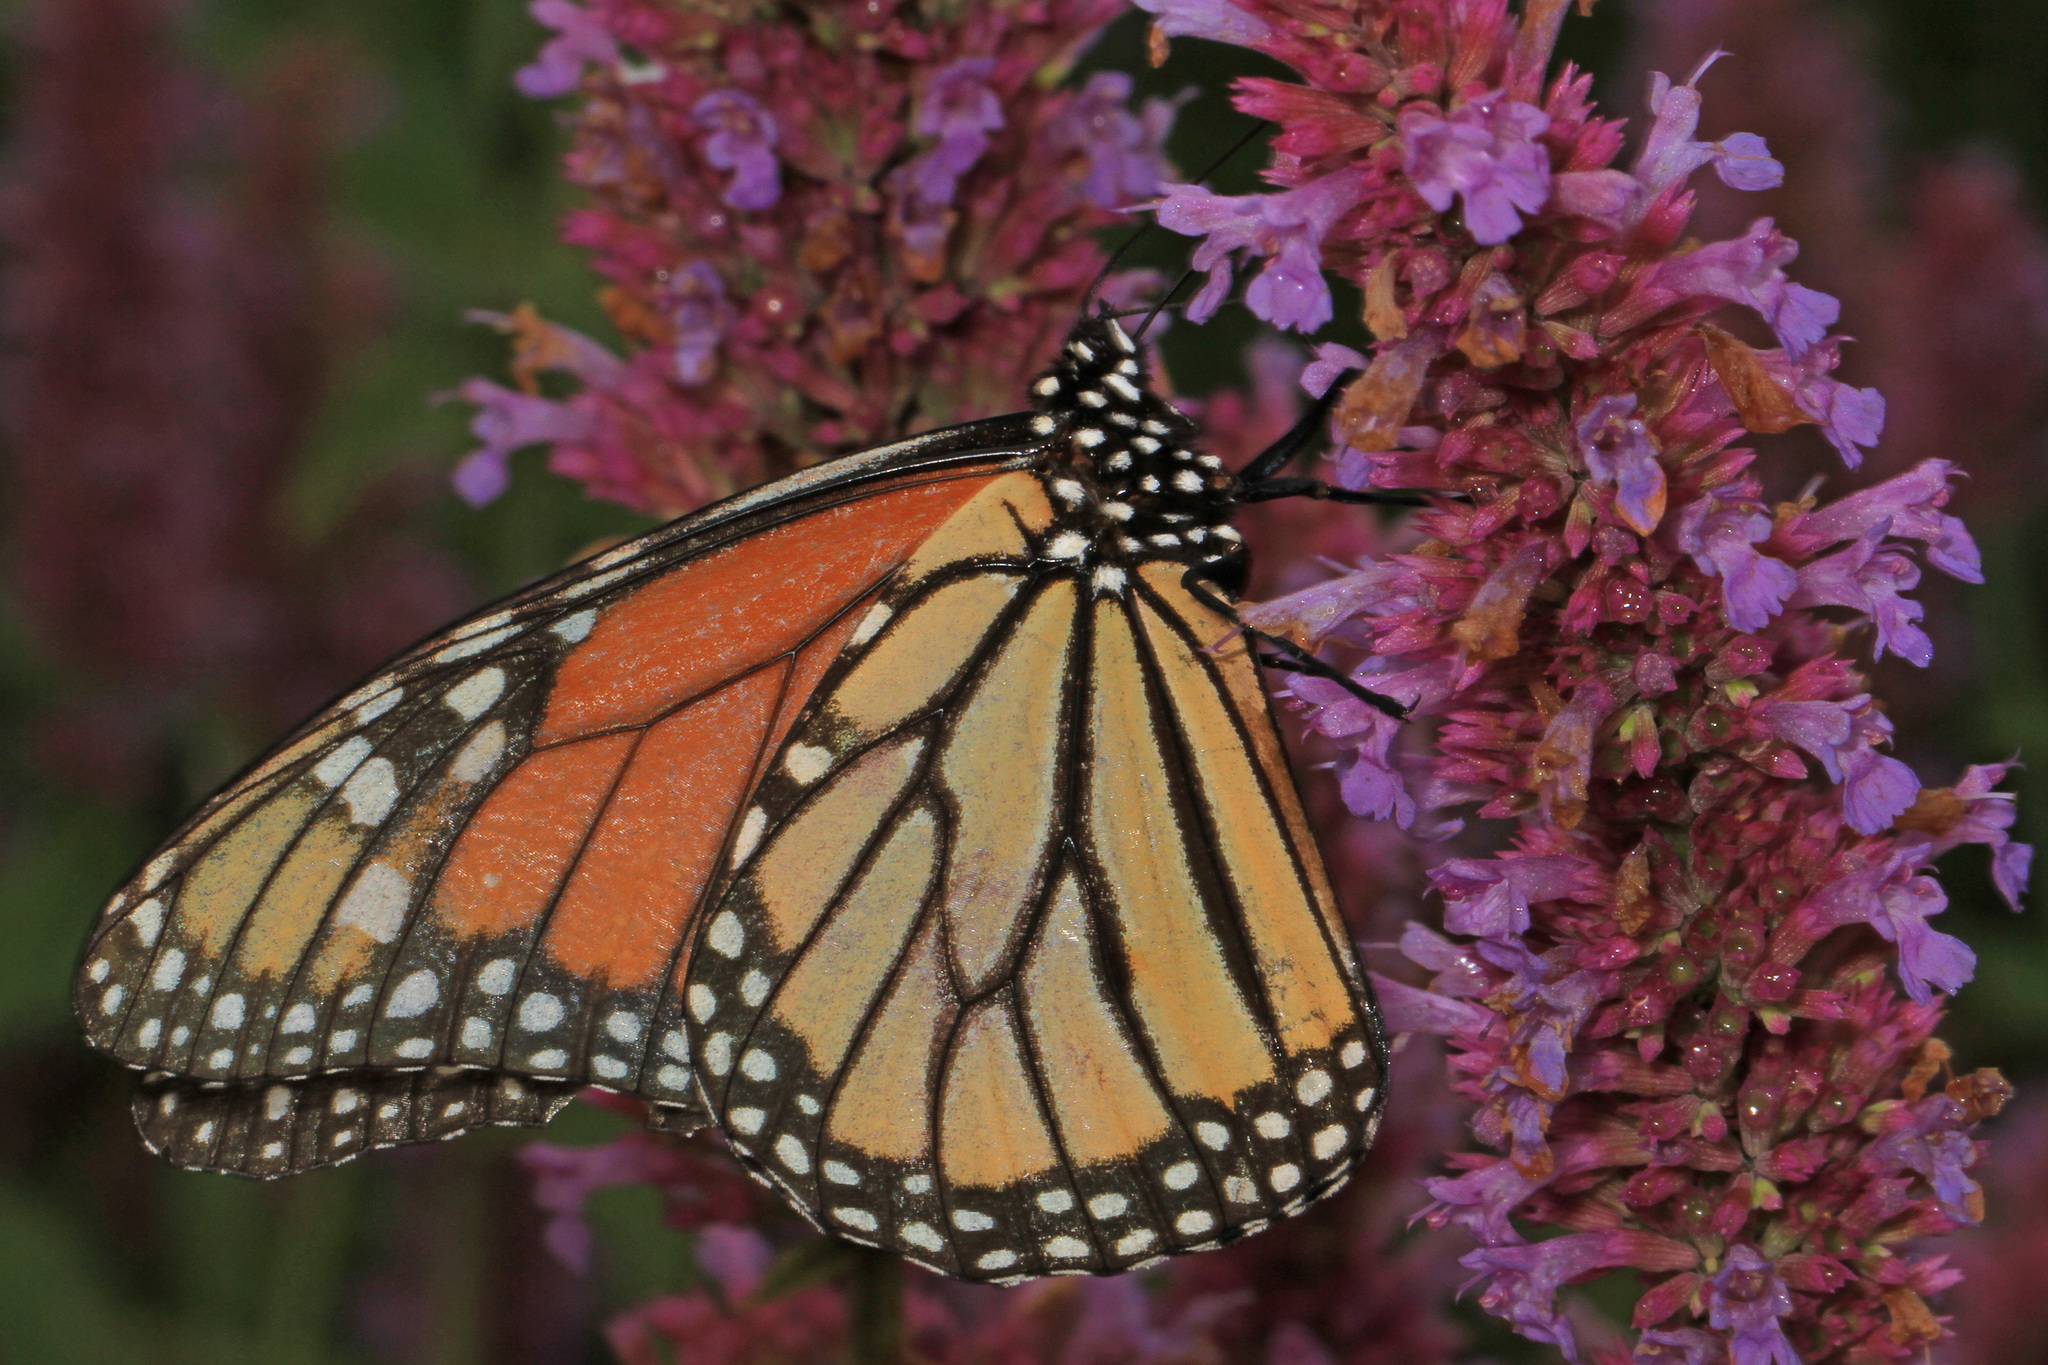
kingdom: Animalia
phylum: Arthropoda
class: Insecta
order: Lepidoptera
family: Nymphalidae
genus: Danaus
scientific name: Danaus plexippus
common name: Monarch
